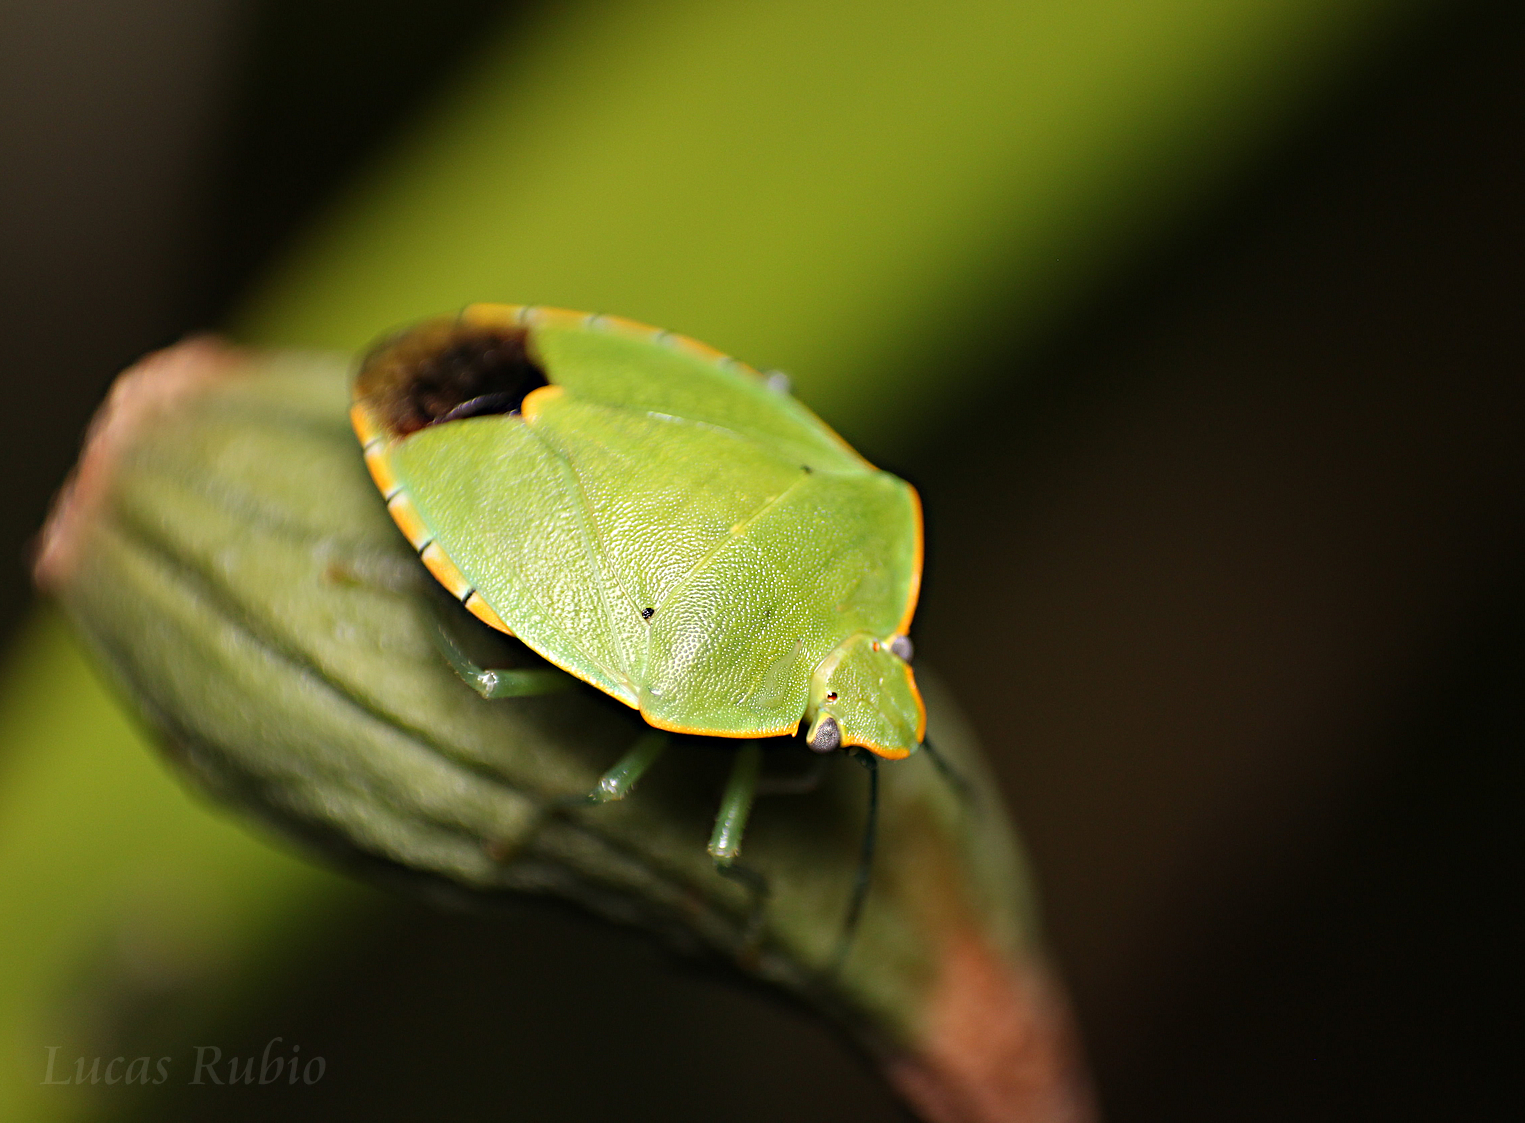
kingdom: Animalia
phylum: Arthropoda
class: Insecta
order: Hemiptera
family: Pentatomidae
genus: Chinavia
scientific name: Chinavia impicticornis
